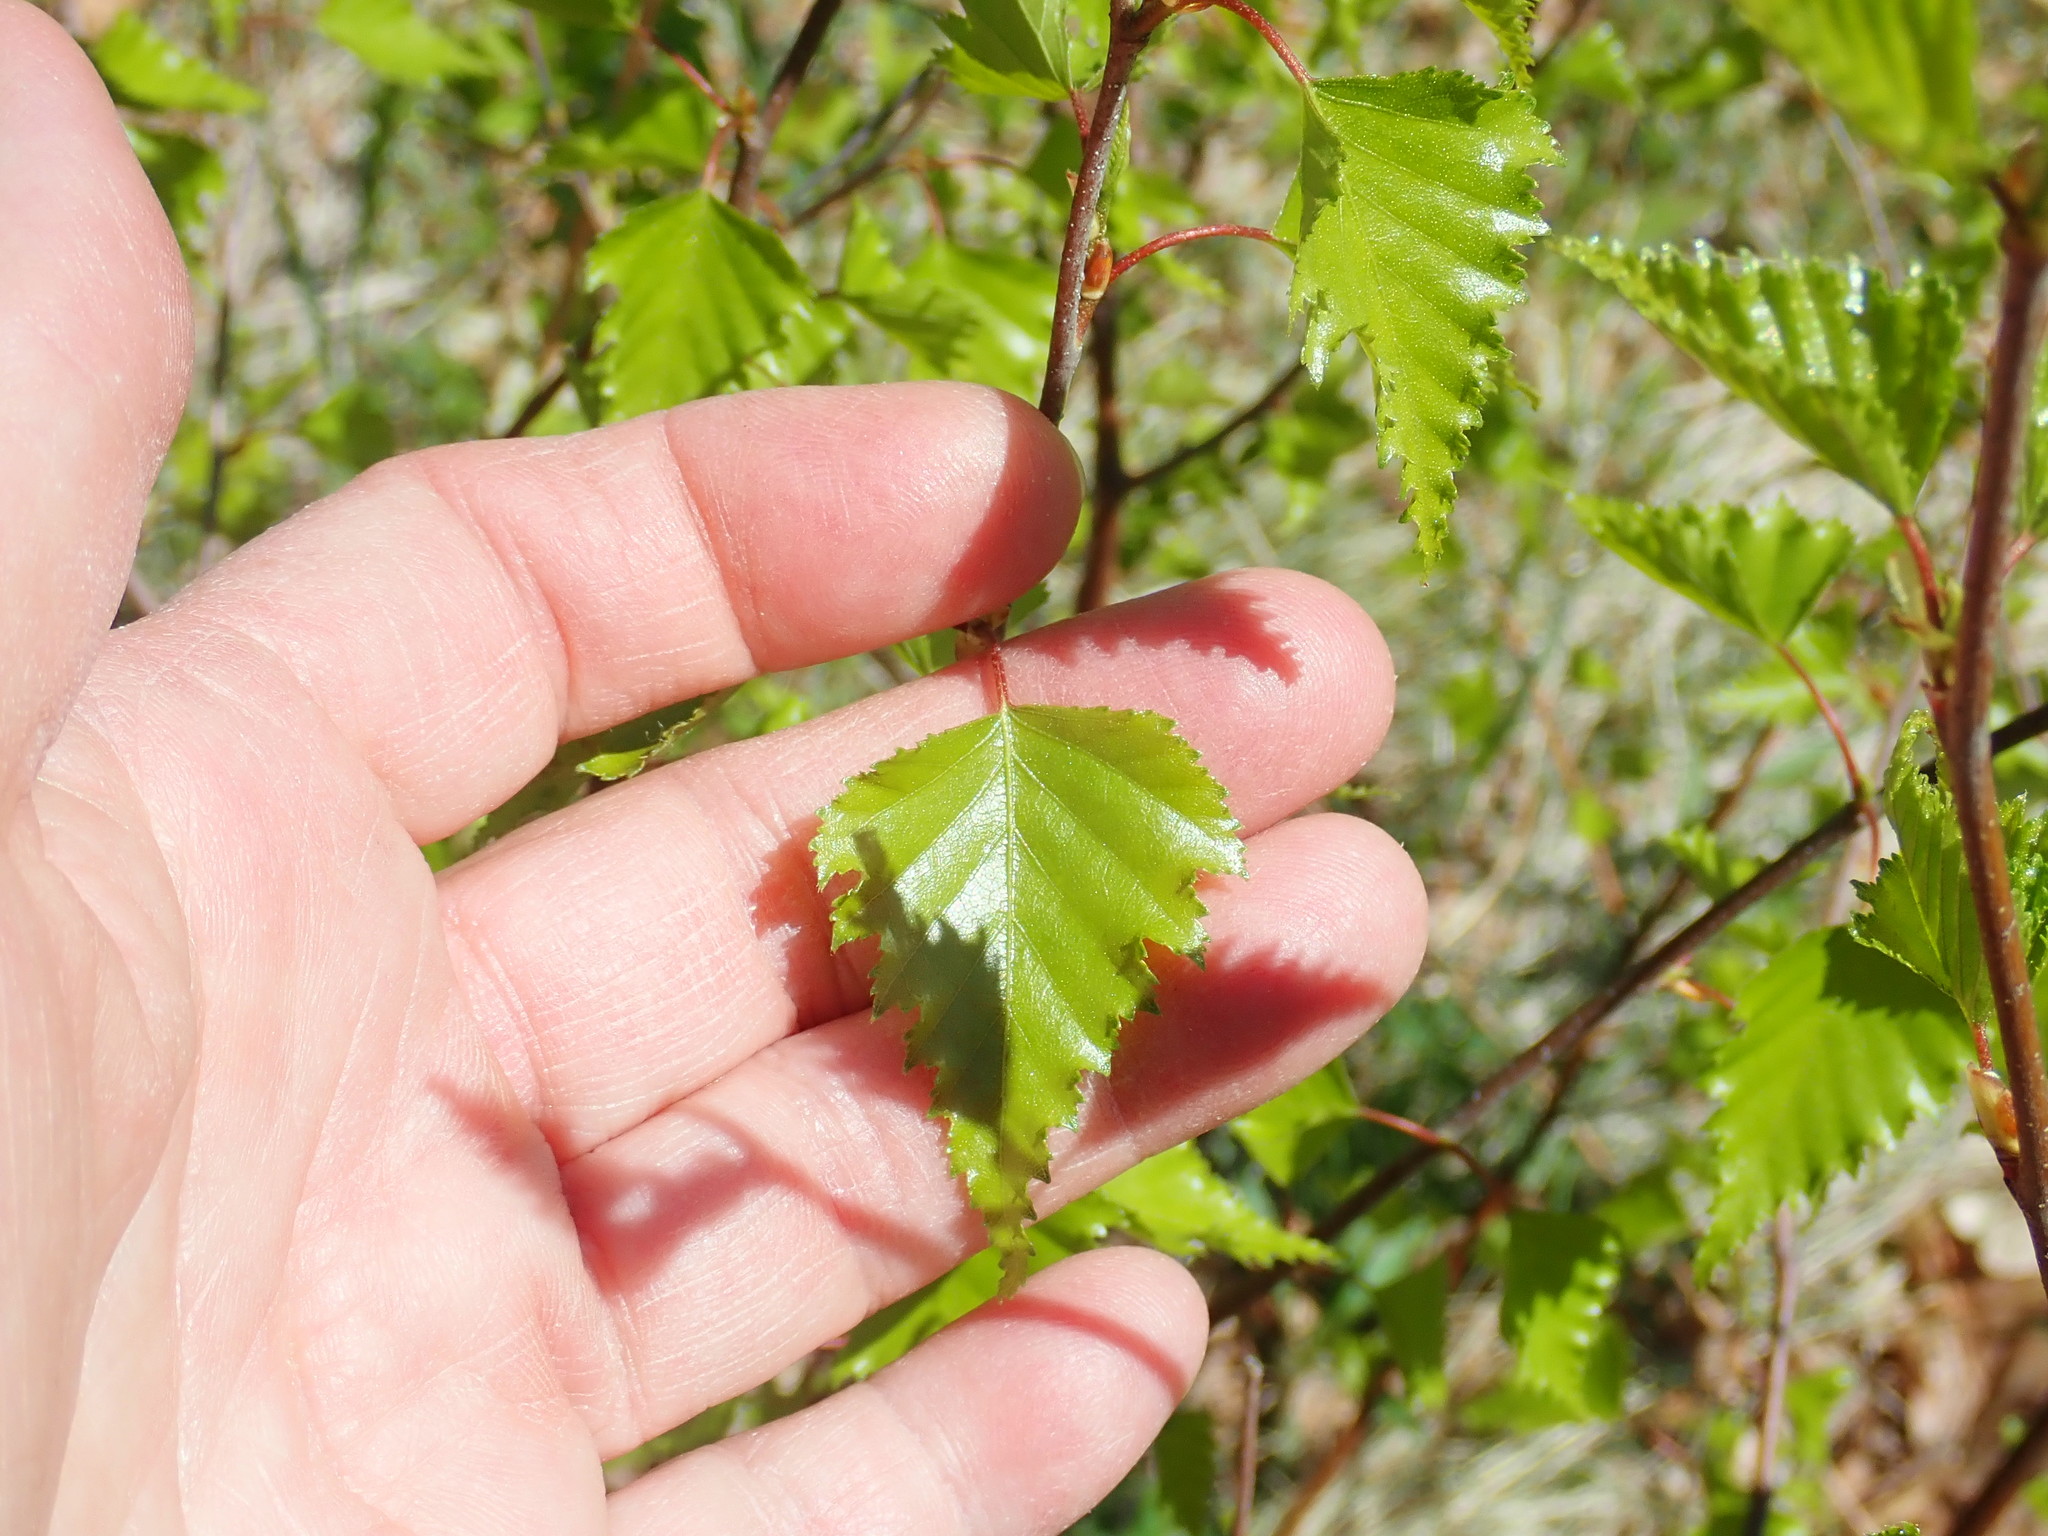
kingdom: Plantae
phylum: Tracheophyta
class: Magnoliopsida
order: Fagales
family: Betulaceae
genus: Betula
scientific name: Betula populifolia
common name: Fire birch
